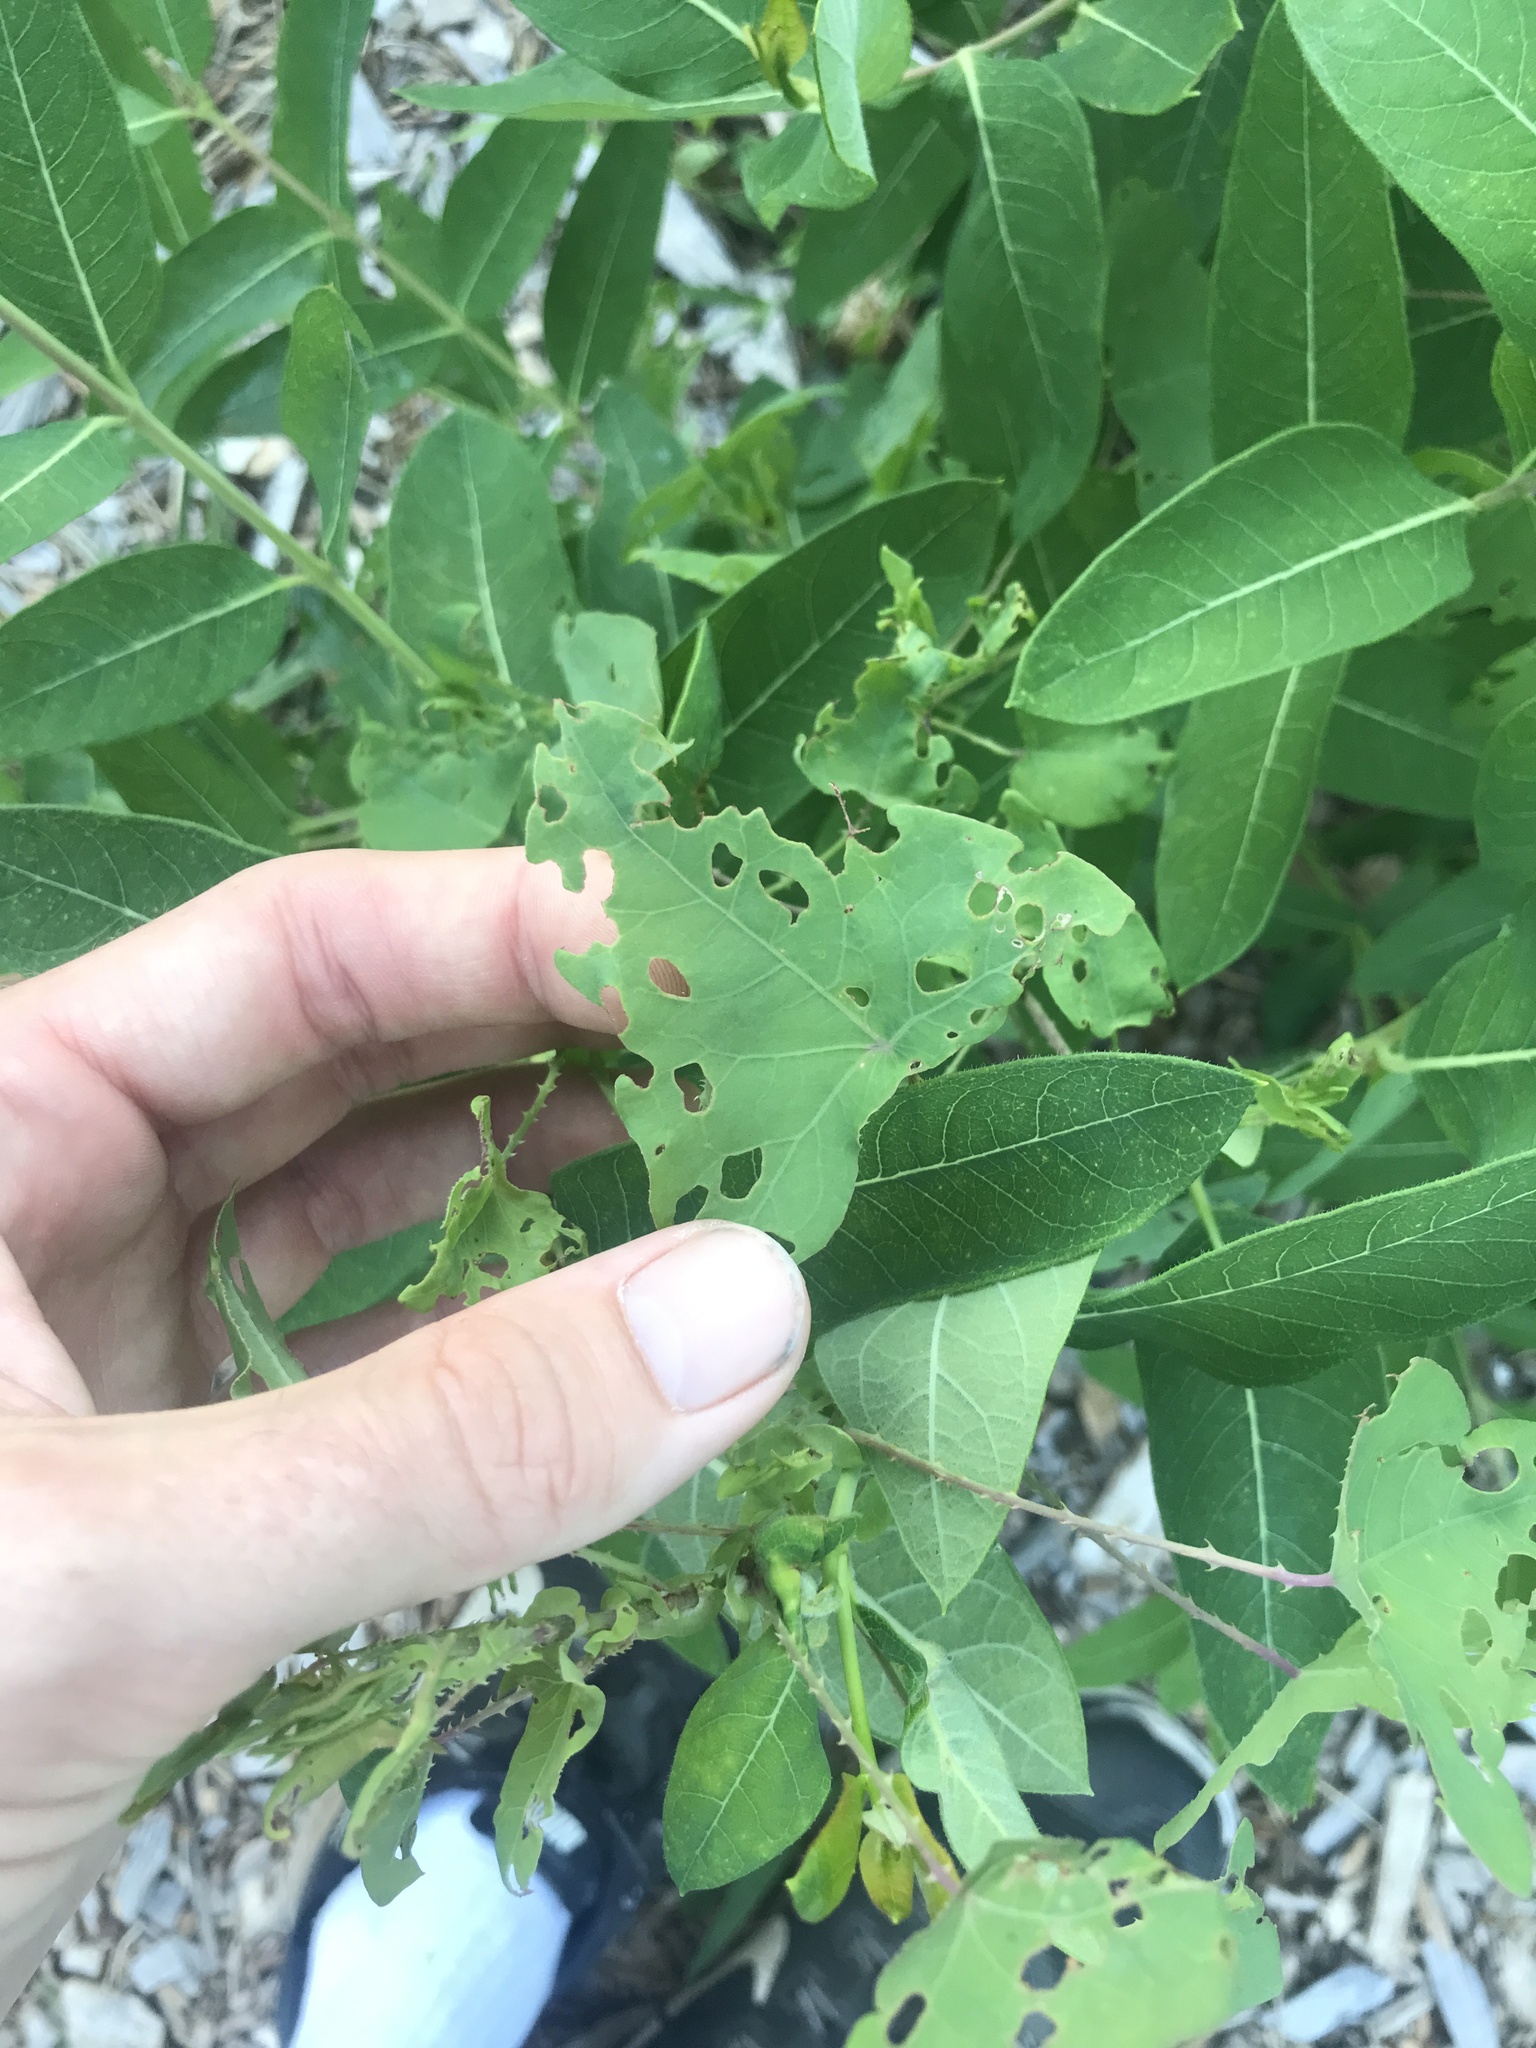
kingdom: Animalia
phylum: Arthropoda
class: Insecta
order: Coleoptera
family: Curculionidae
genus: Rhinoncomimus
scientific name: Rhinoncomimus latipes
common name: Chinese weevil
